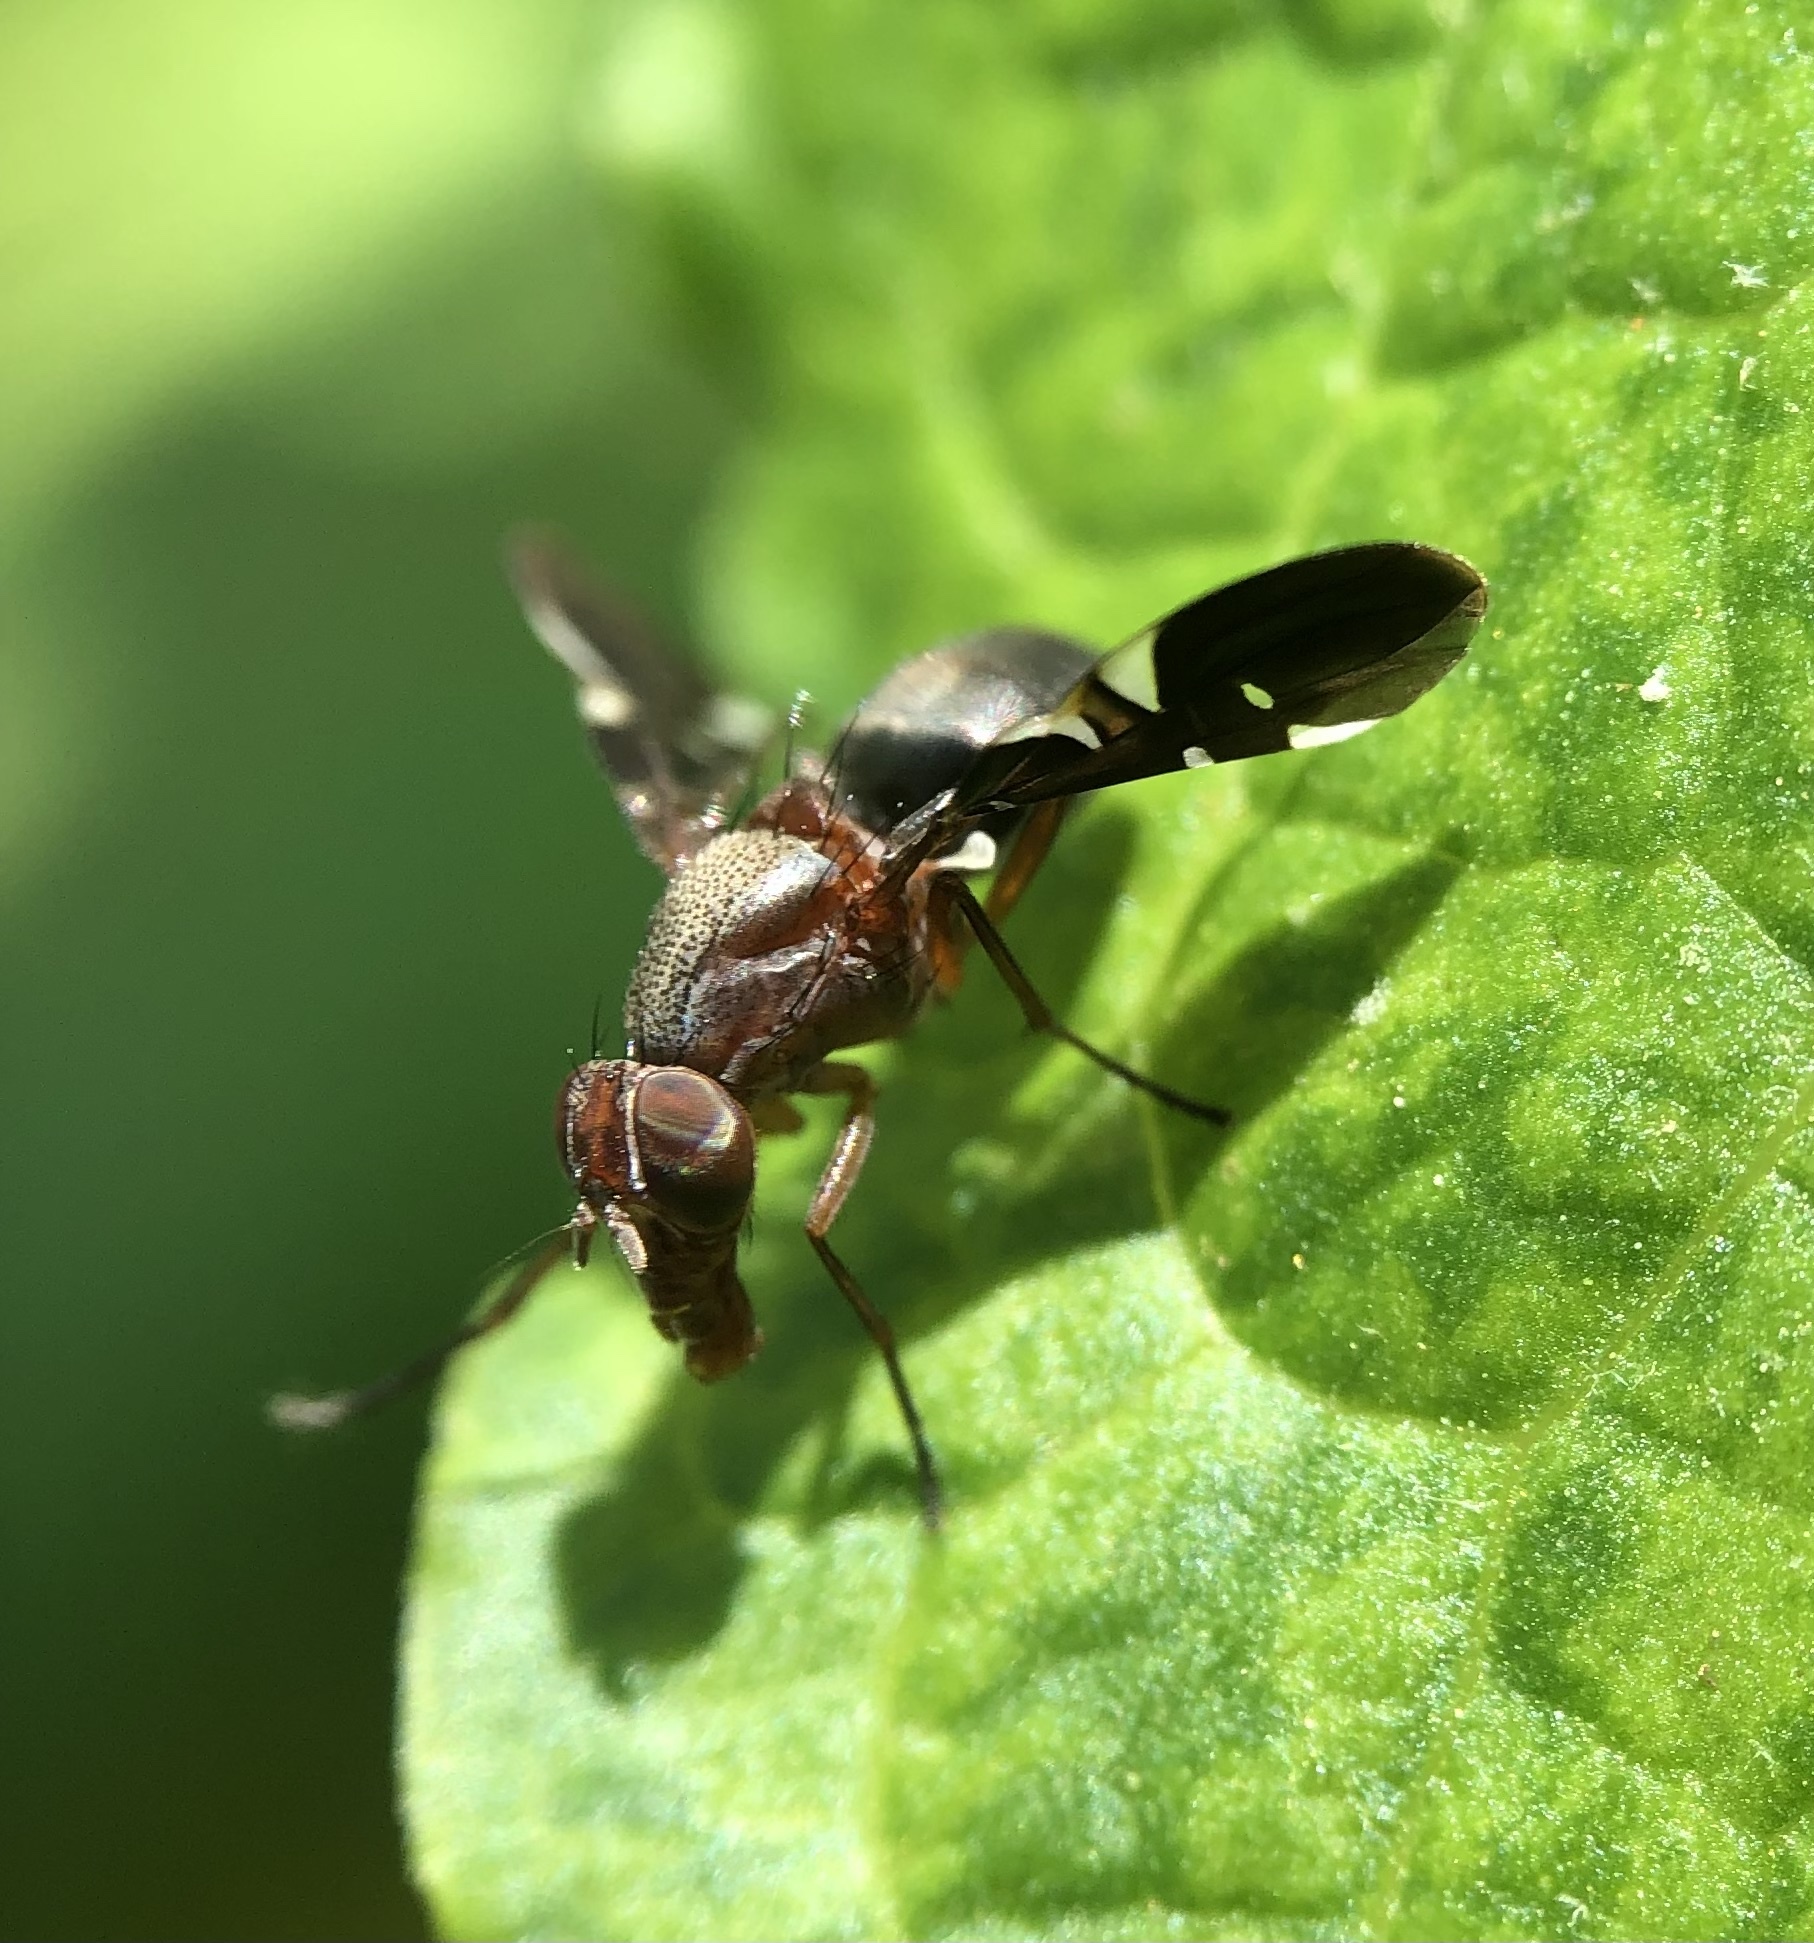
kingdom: Animalia
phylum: Arthropoda
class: Insecta
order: Diptera
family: Ulidiidae
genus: Delphinia
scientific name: Delphinia picta
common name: Common picture-winged fly
